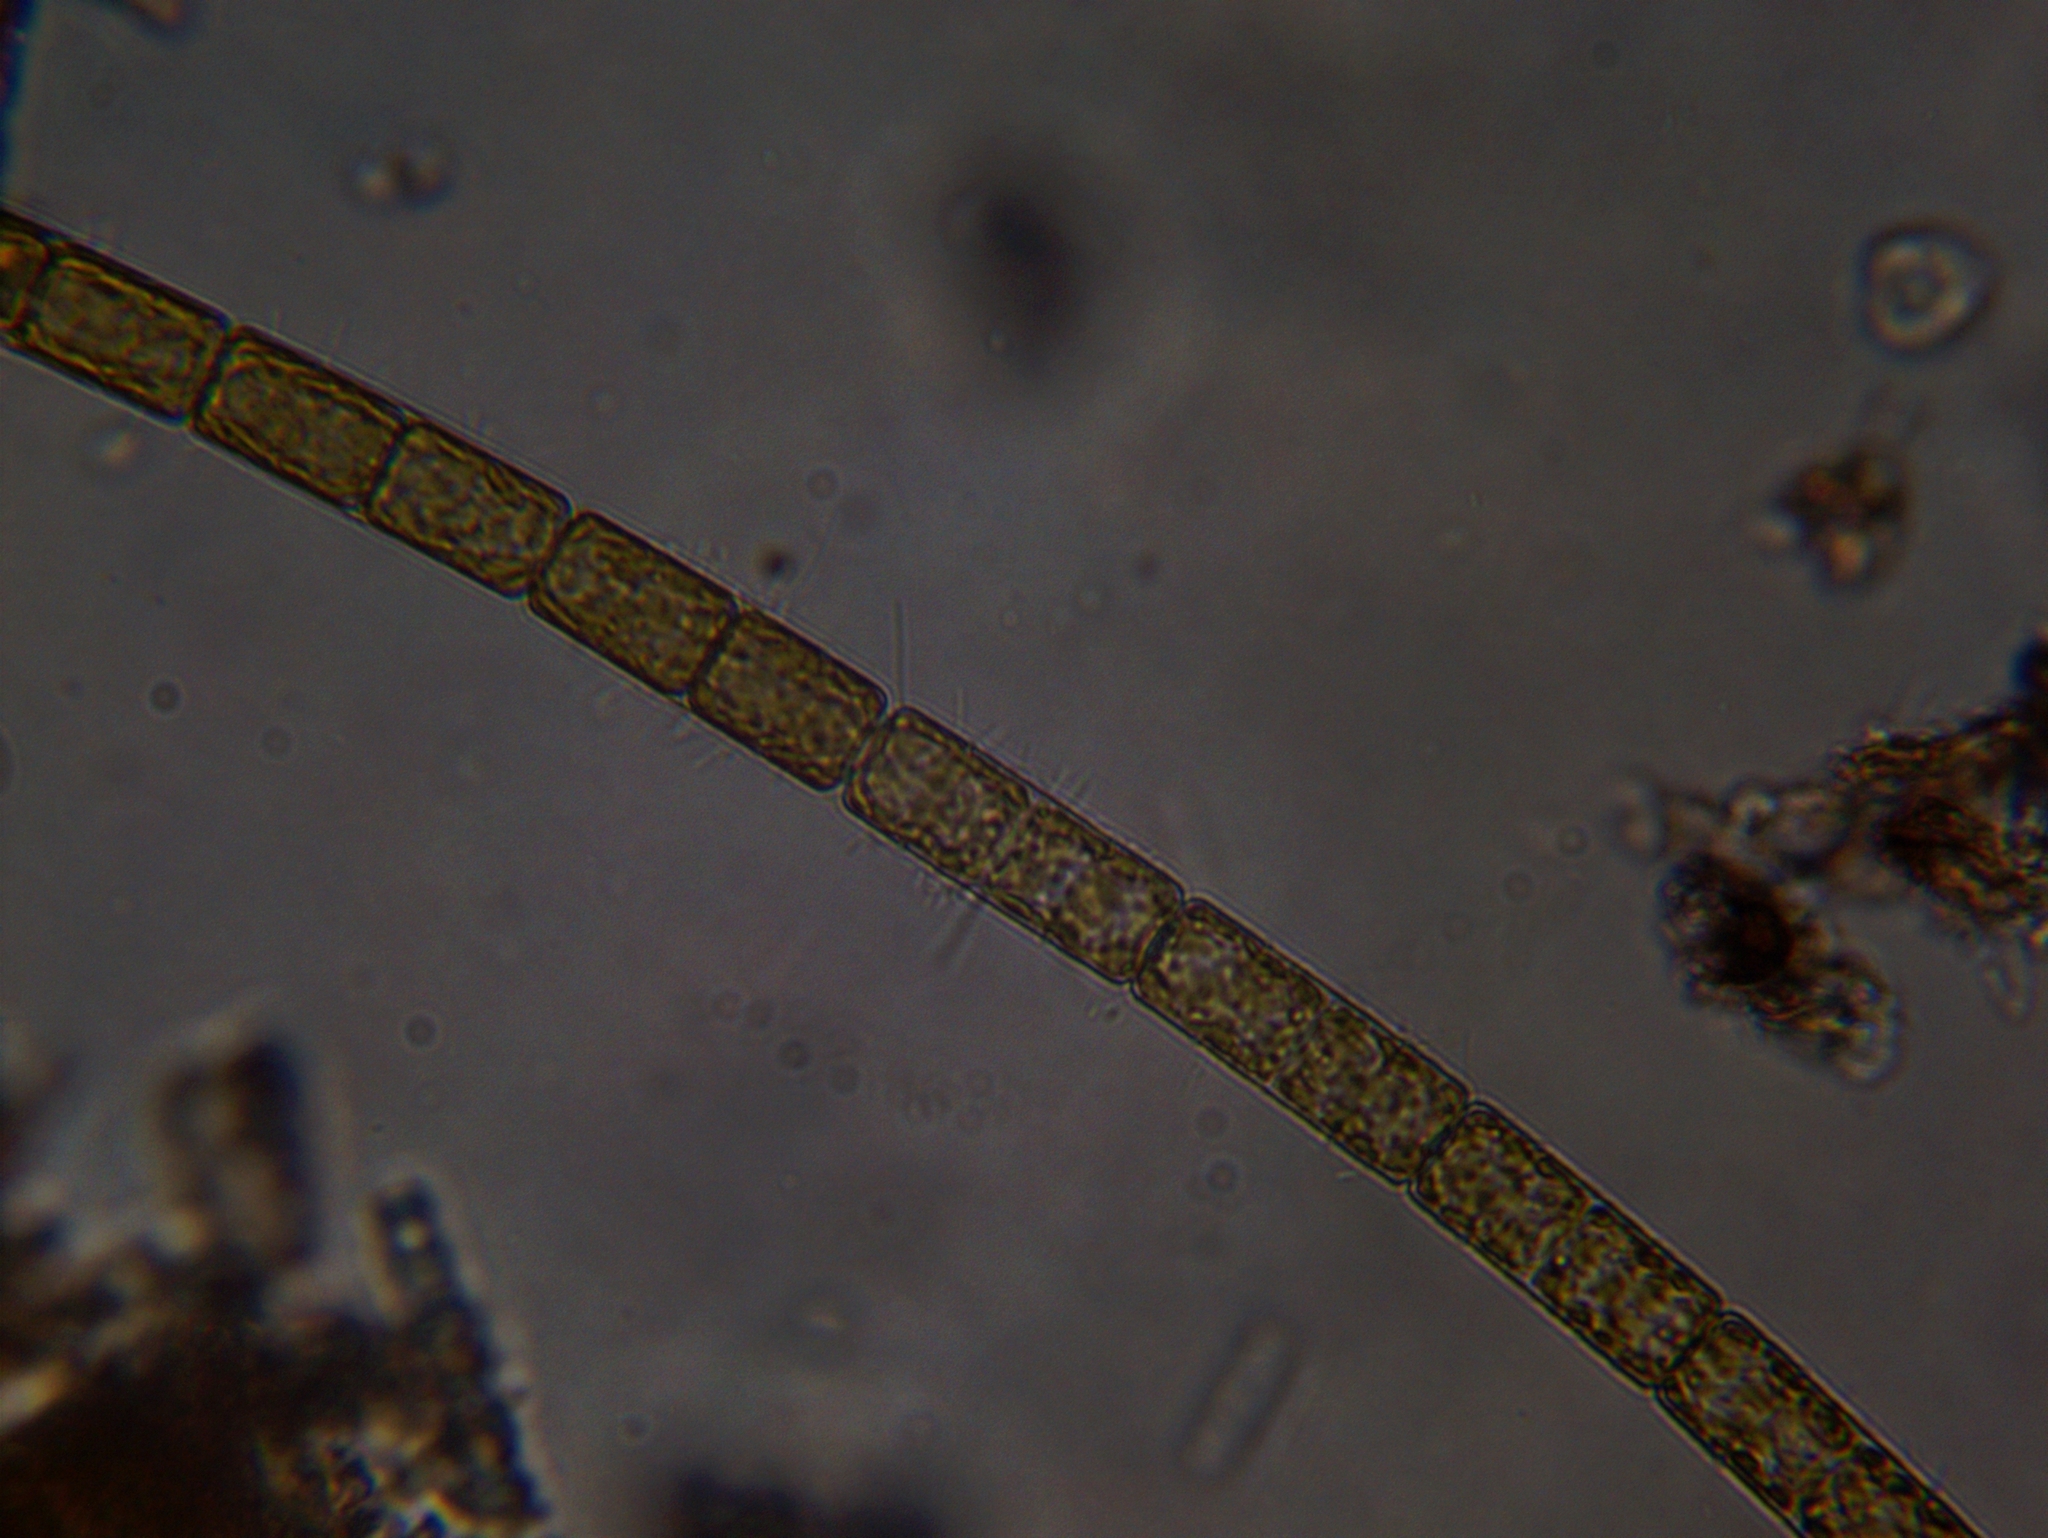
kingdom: Chromista
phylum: Ochrophyta
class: Bacillariophyceae
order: Melosirales
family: Melosiraceae
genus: Melosira
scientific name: Melosira varians
